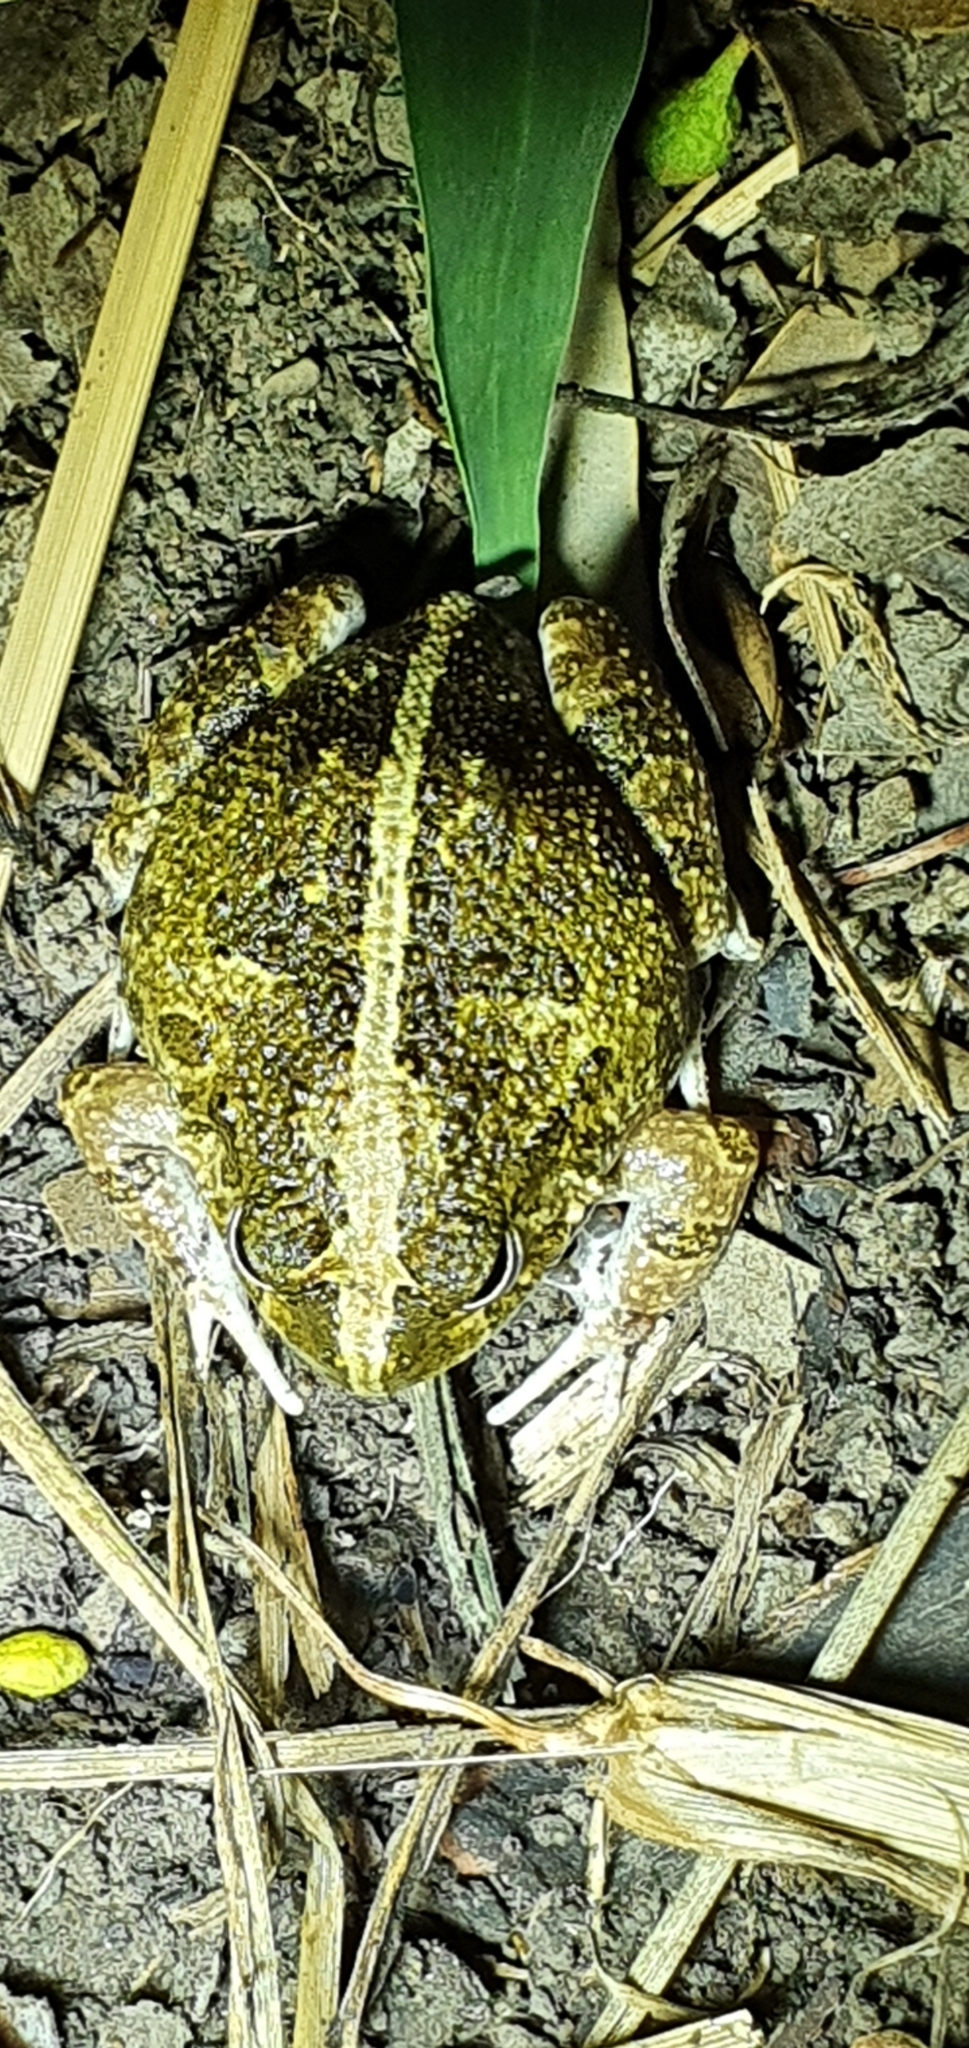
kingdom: Animalia
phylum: Chordata
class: Amphibia
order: Anura
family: Limnodynastidae
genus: Platyplectrum
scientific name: Platyplectrum ornatum
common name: Ornate burrowing frog
